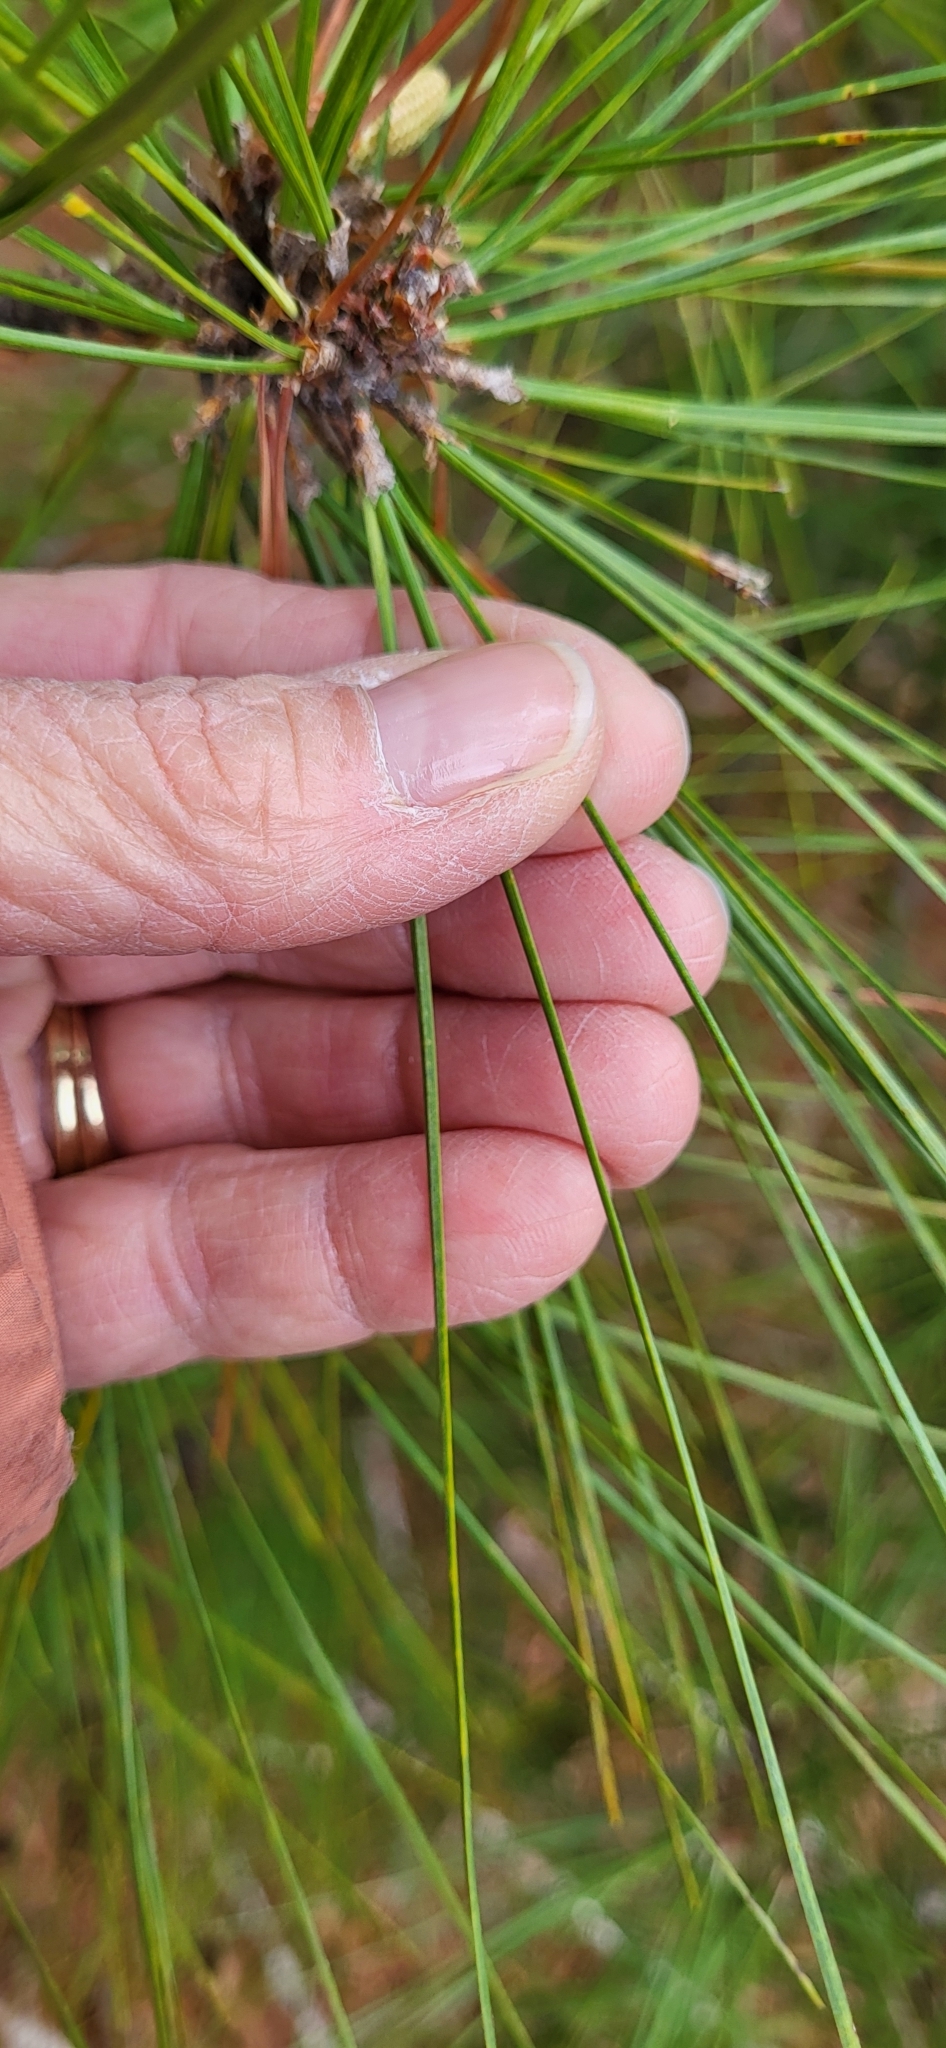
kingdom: Plantae
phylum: Tracheophyta
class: Pinopsida
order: Pinales
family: Pinaceae
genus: Pinus
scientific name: Pinus taeda
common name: Loblolly pine
